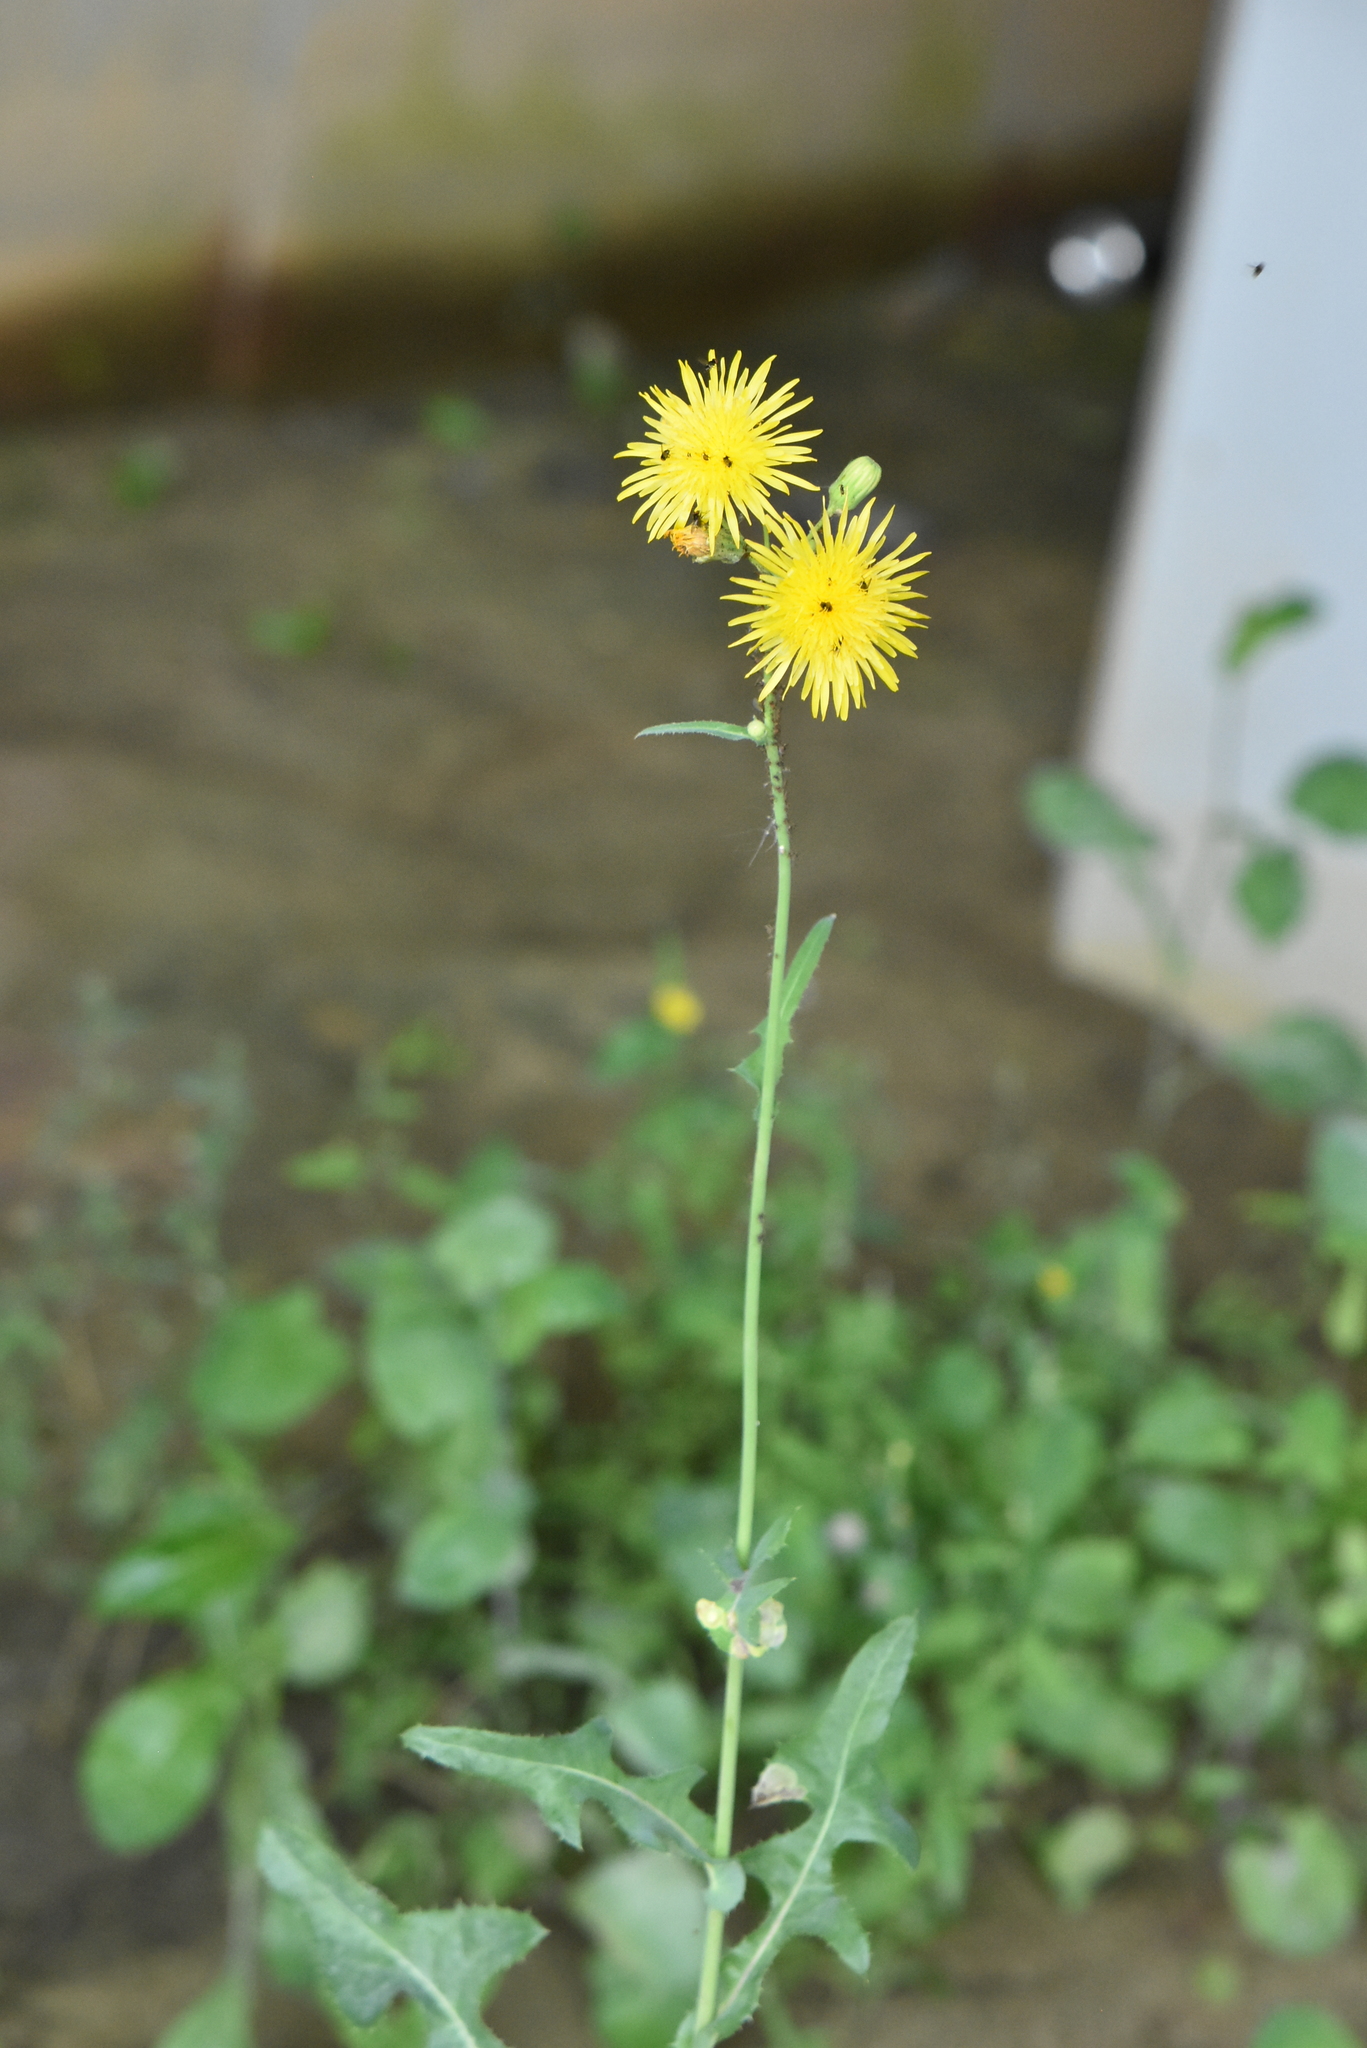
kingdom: Plantae
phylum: Tracheophyta
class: Magnoliopsida
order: Asterales
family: Asteraceae
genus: Sonchus
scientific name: Sonchus arvensis
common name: Perennial sow-thistle
